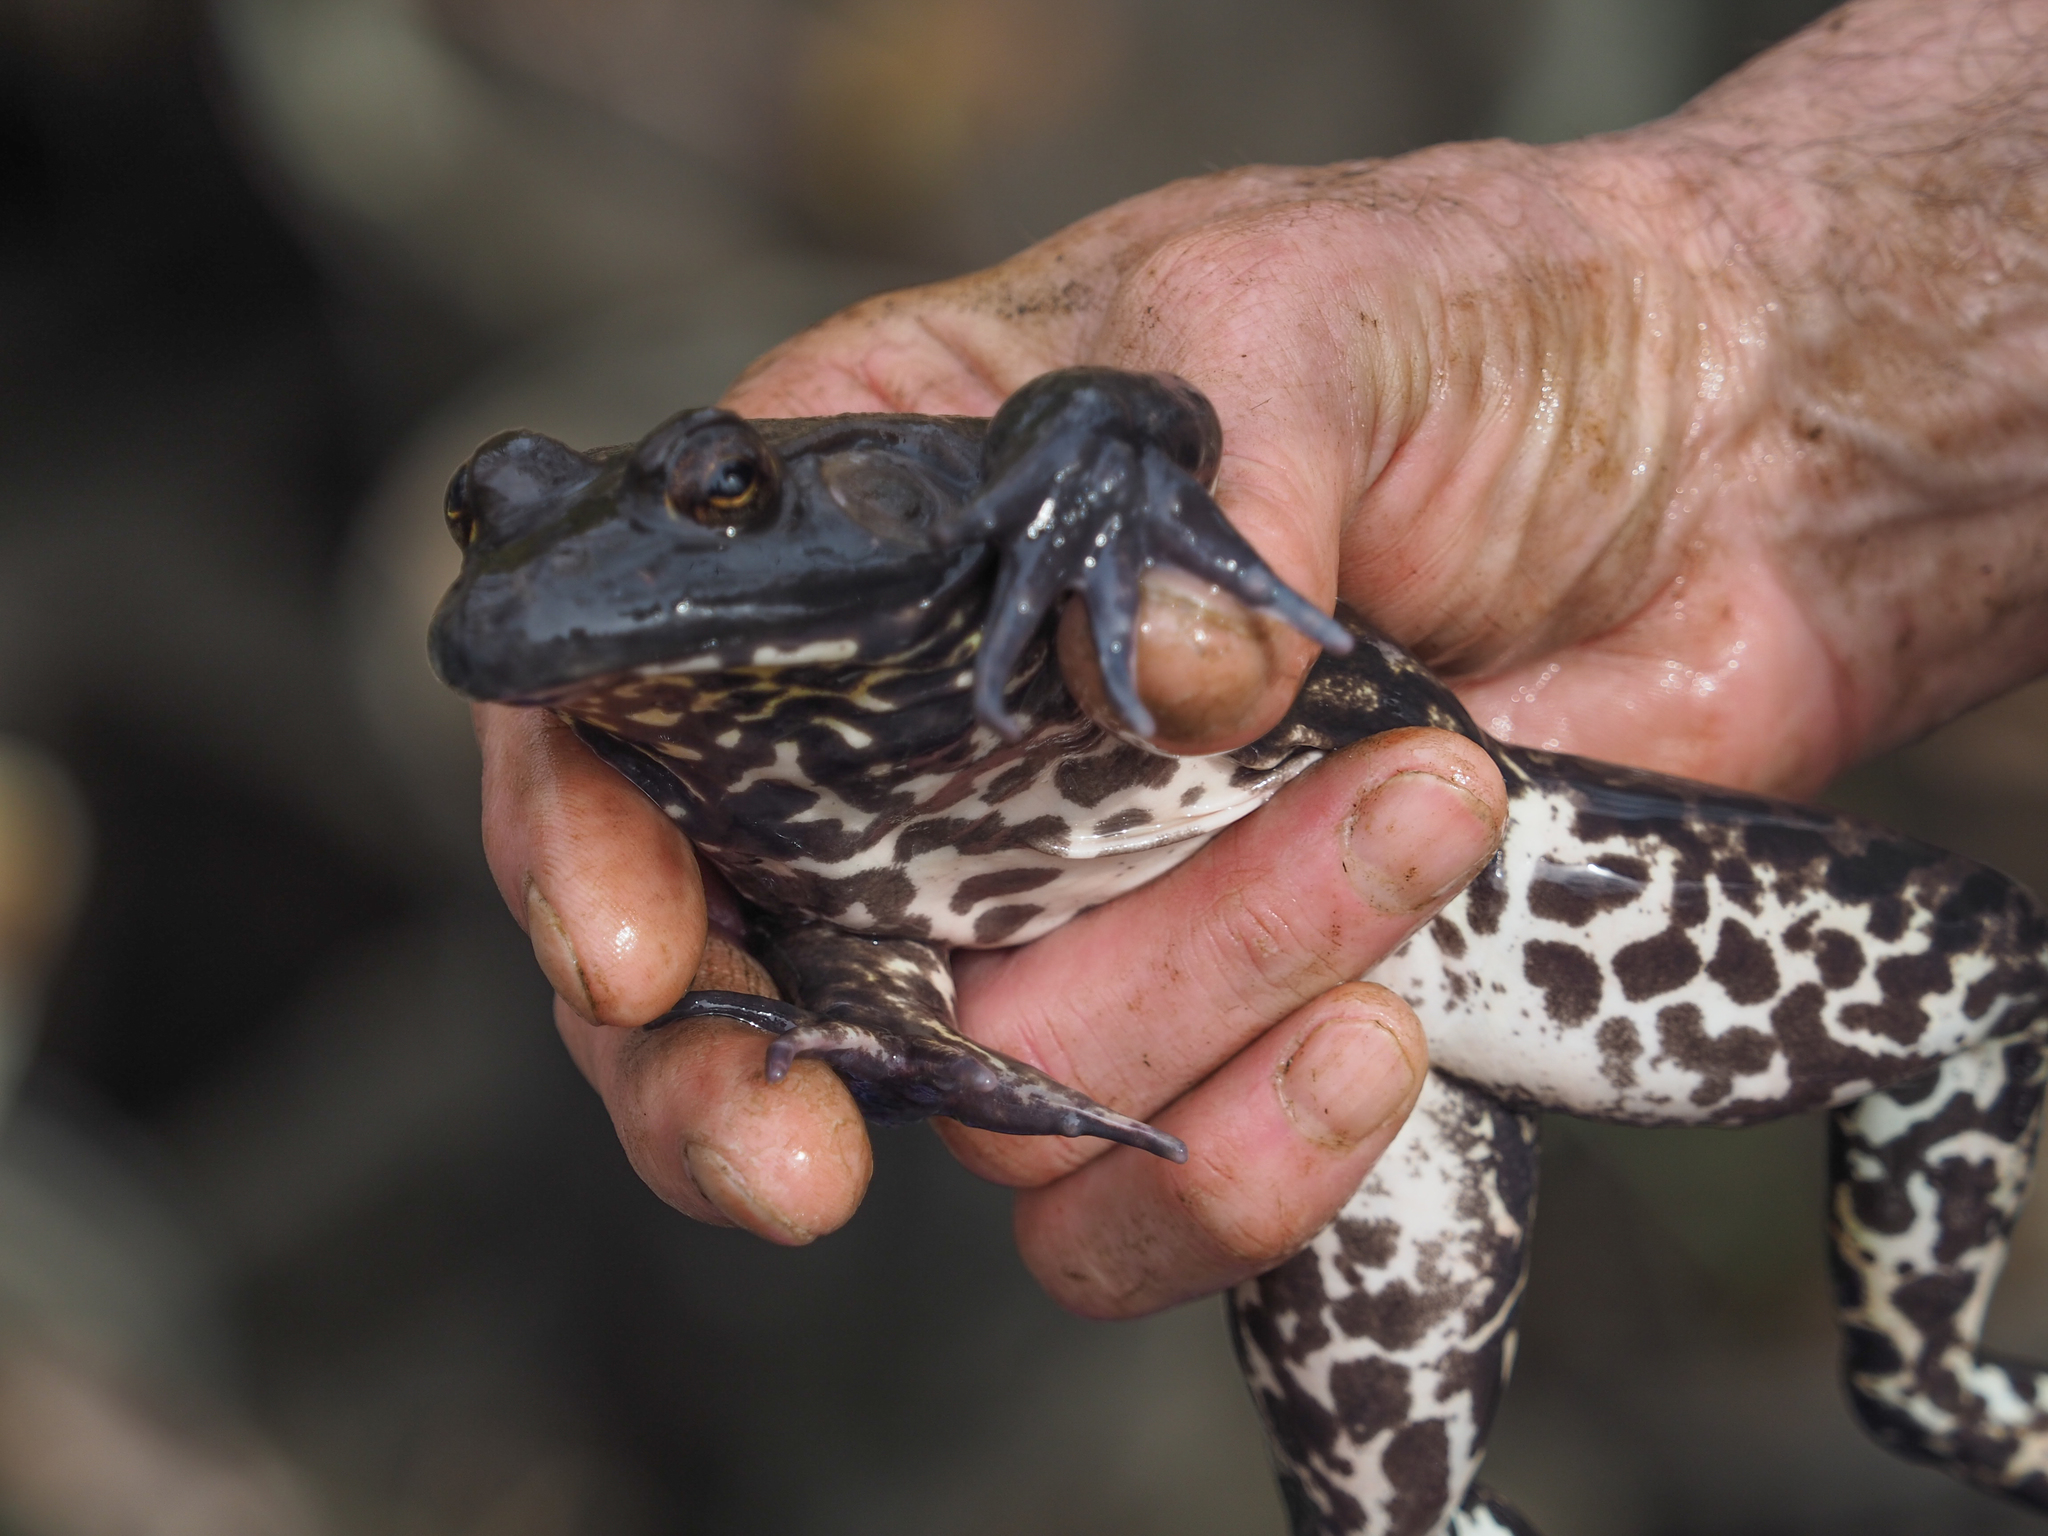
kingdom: Animalia
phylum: Chordata
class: Amphibia
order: Anura
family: Ranidae
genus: Lithobates
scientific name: Lithobates catesbeianus
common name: American bullfrog
